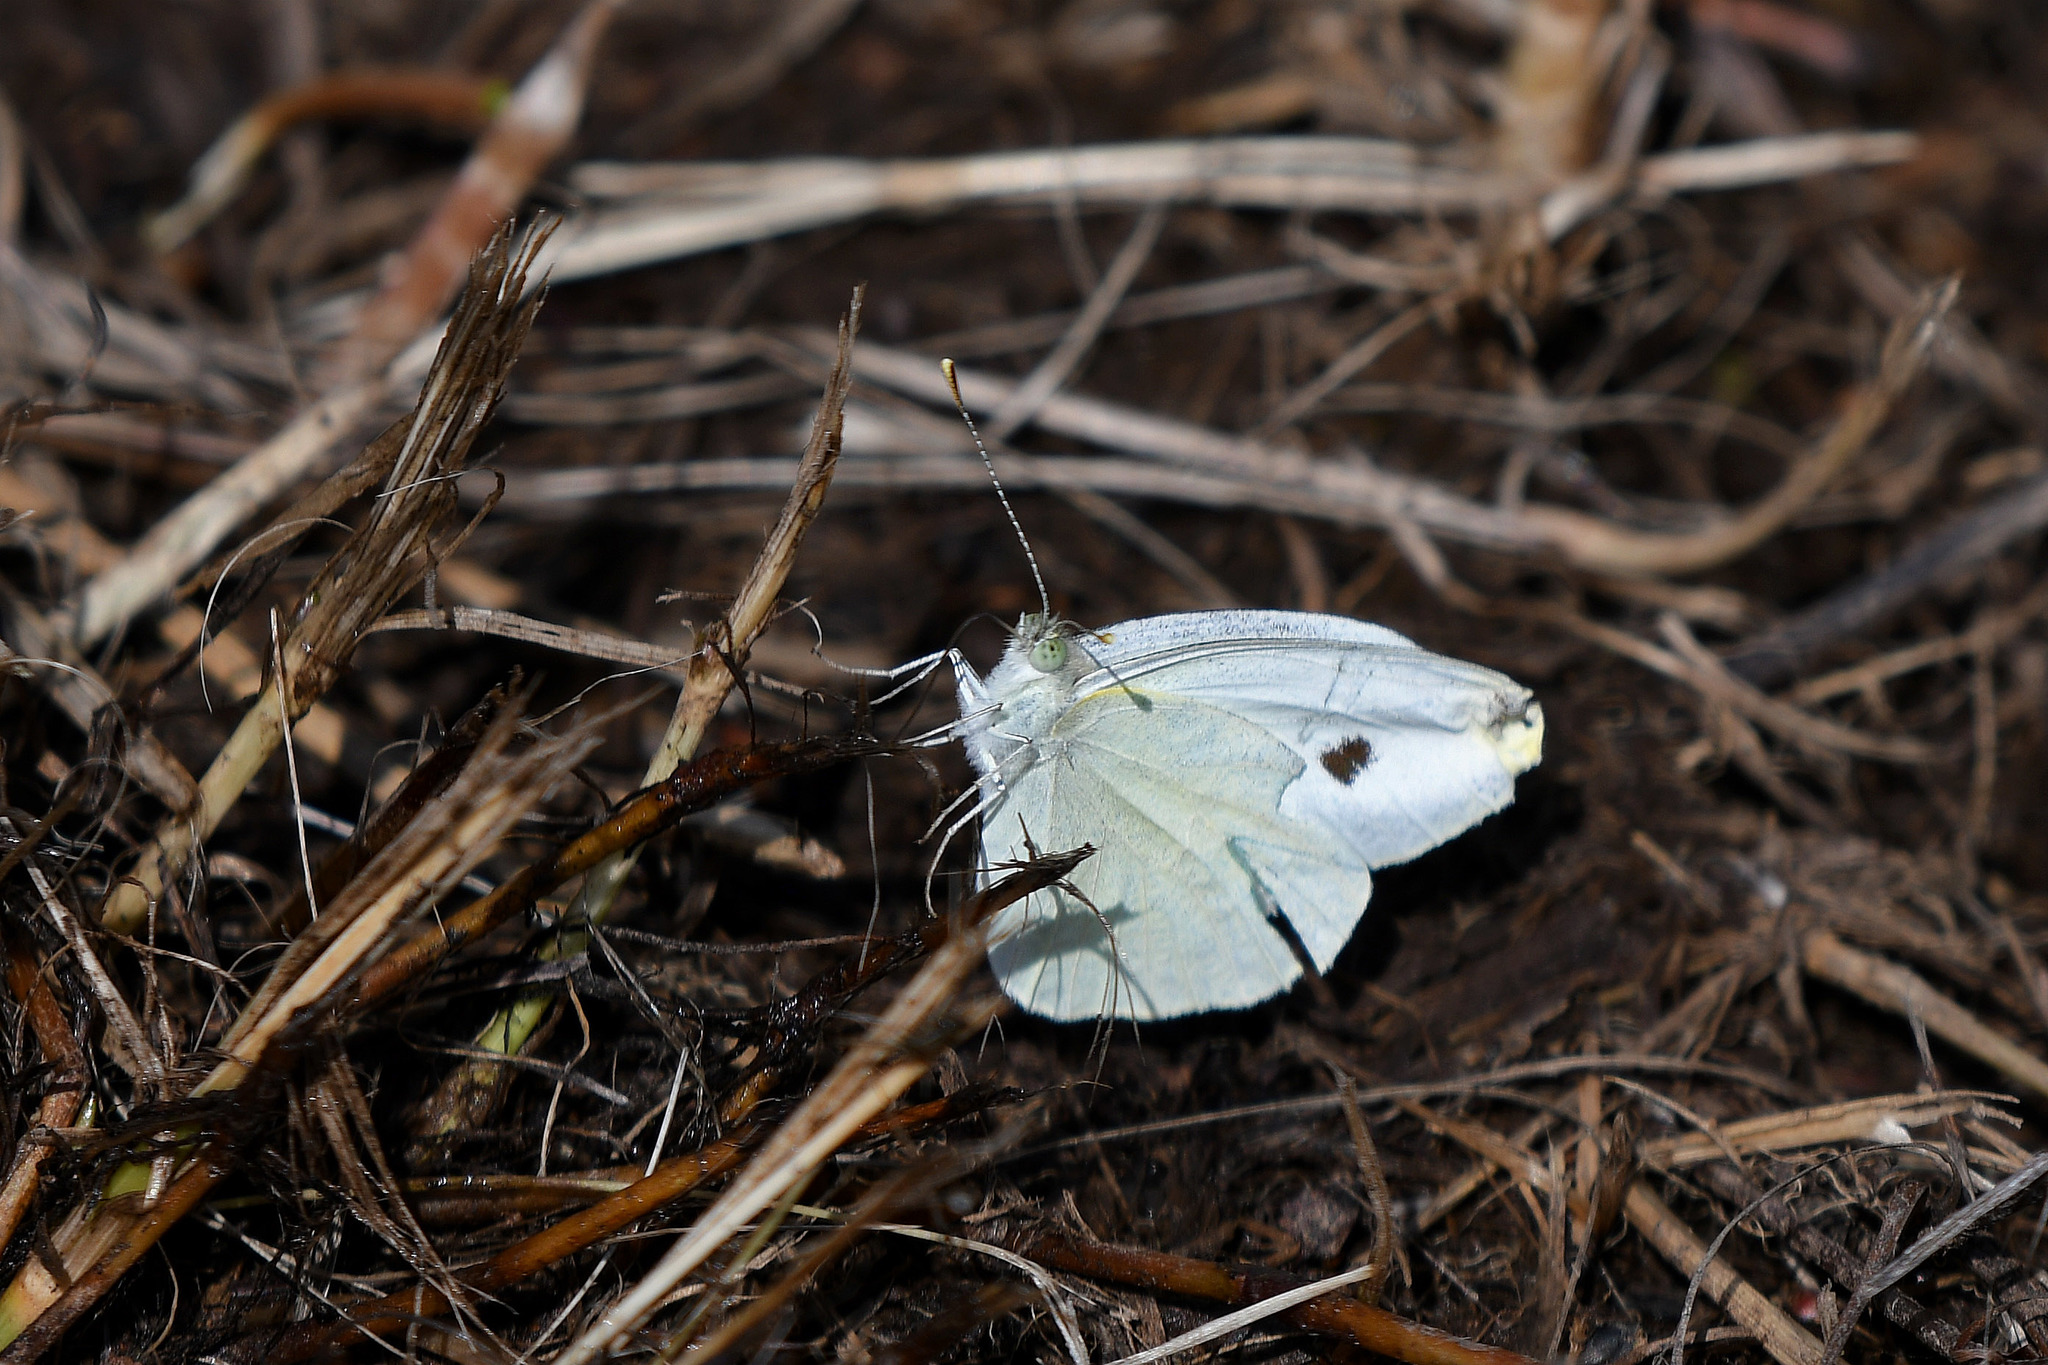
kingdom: Animalia
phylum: Arthropoda
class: Insecta
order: Lepidoptera
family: Pieridae
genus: Pieris
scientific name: Pieris rapae
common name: Small white
